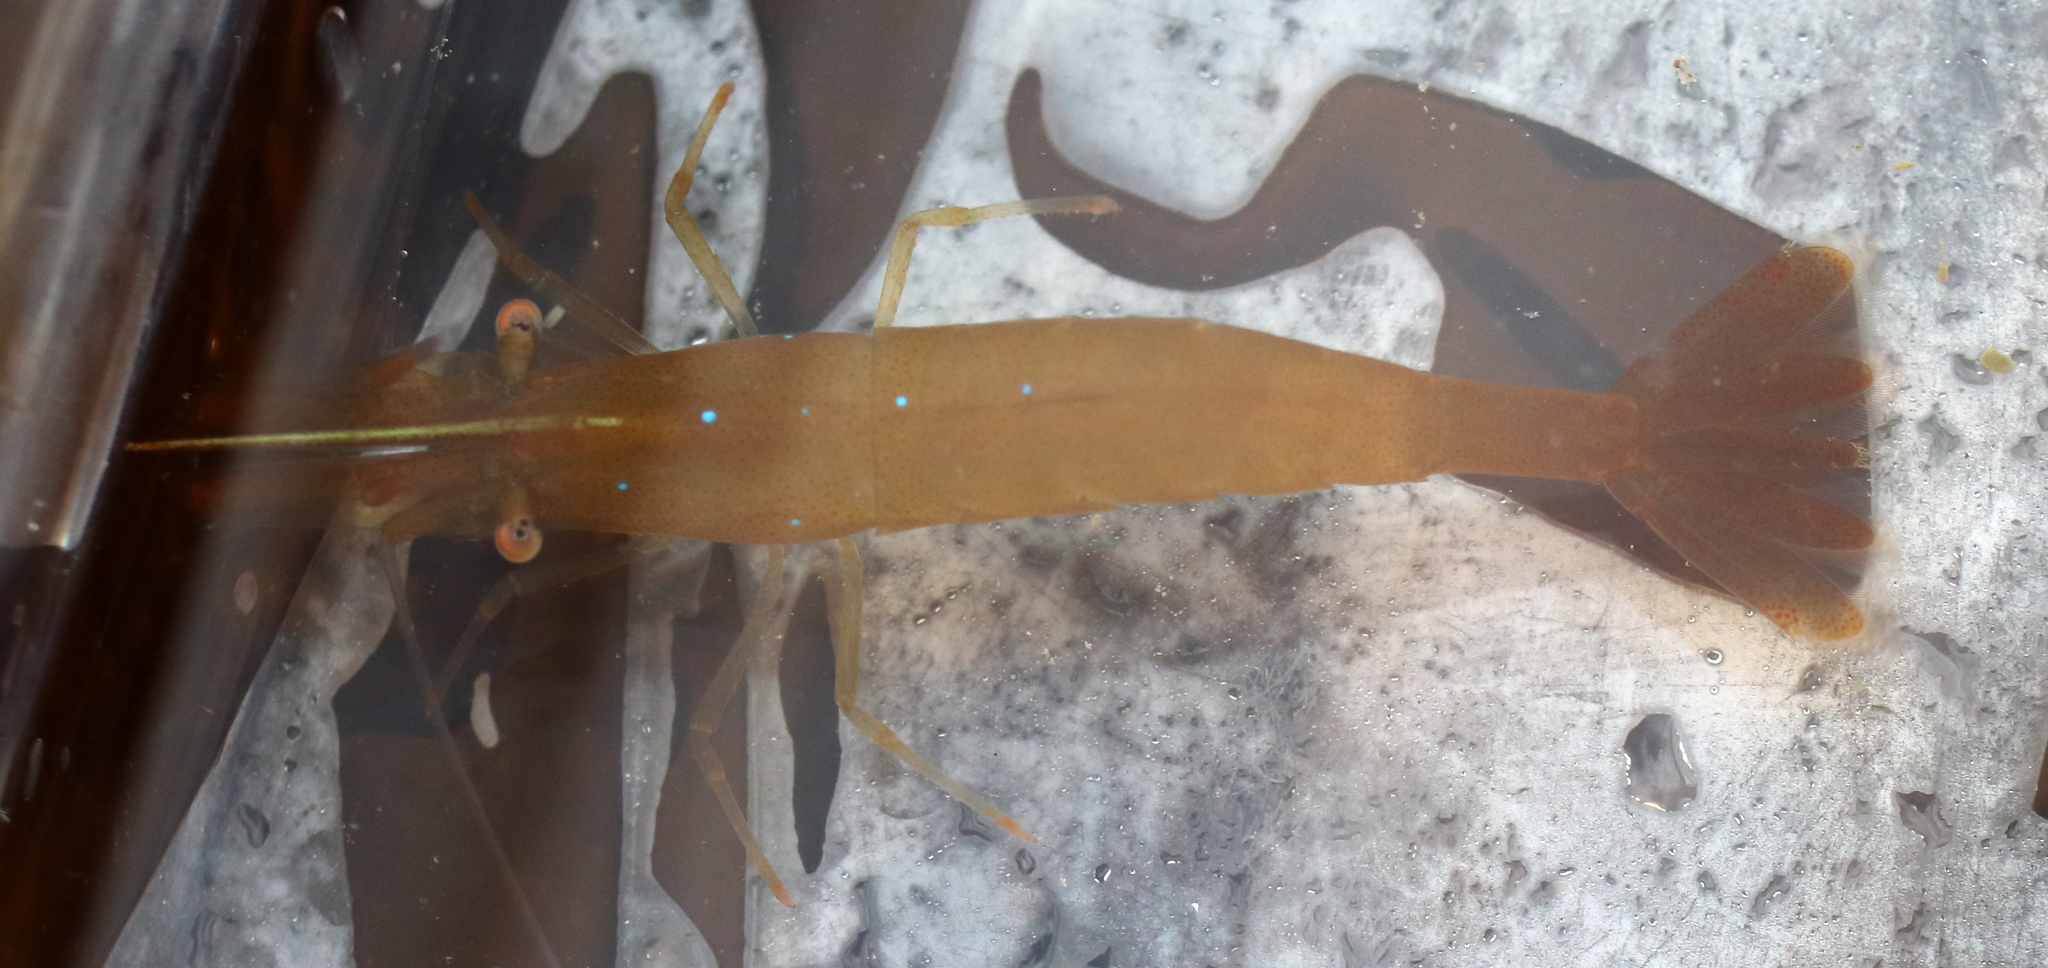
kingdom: Animalia
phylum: Arthropoda
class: Malacostraca
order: Decapoda
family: Thoridae
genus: Heptacarpus
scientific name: Heptacarpus stylus
